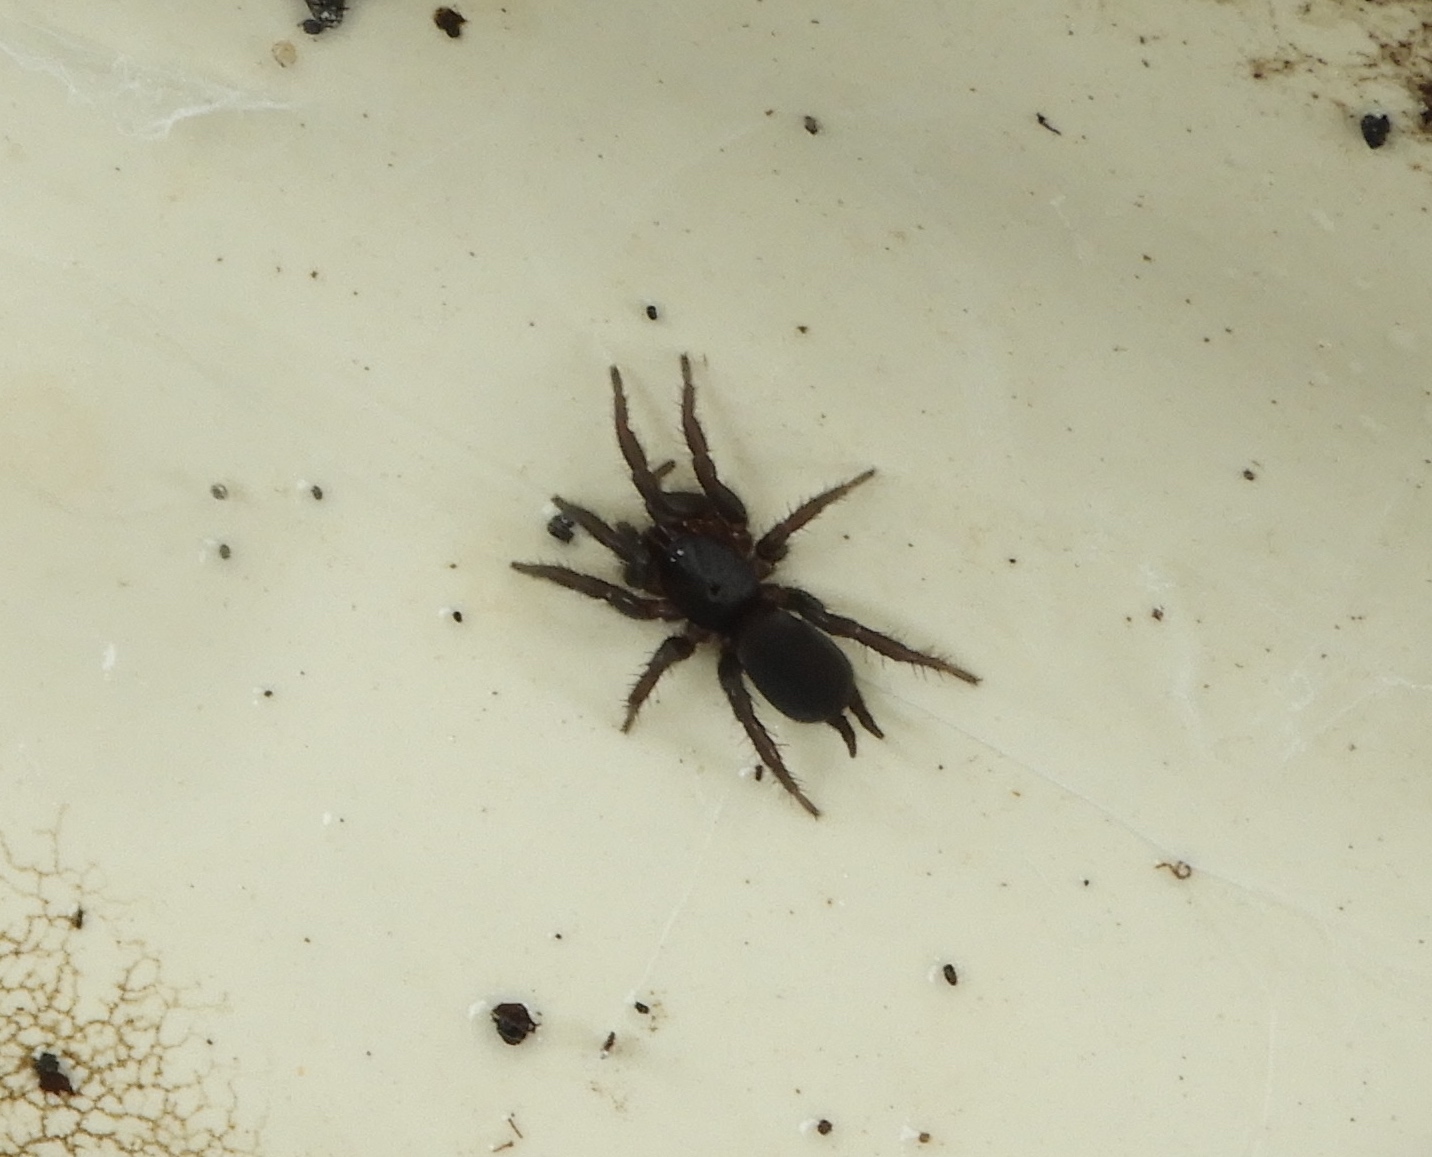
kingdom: Animalia
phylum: Arthropoda
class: Arachnida
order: Araneae
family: Euagridae
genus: Euagrus
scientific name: Euagrus gertschi
